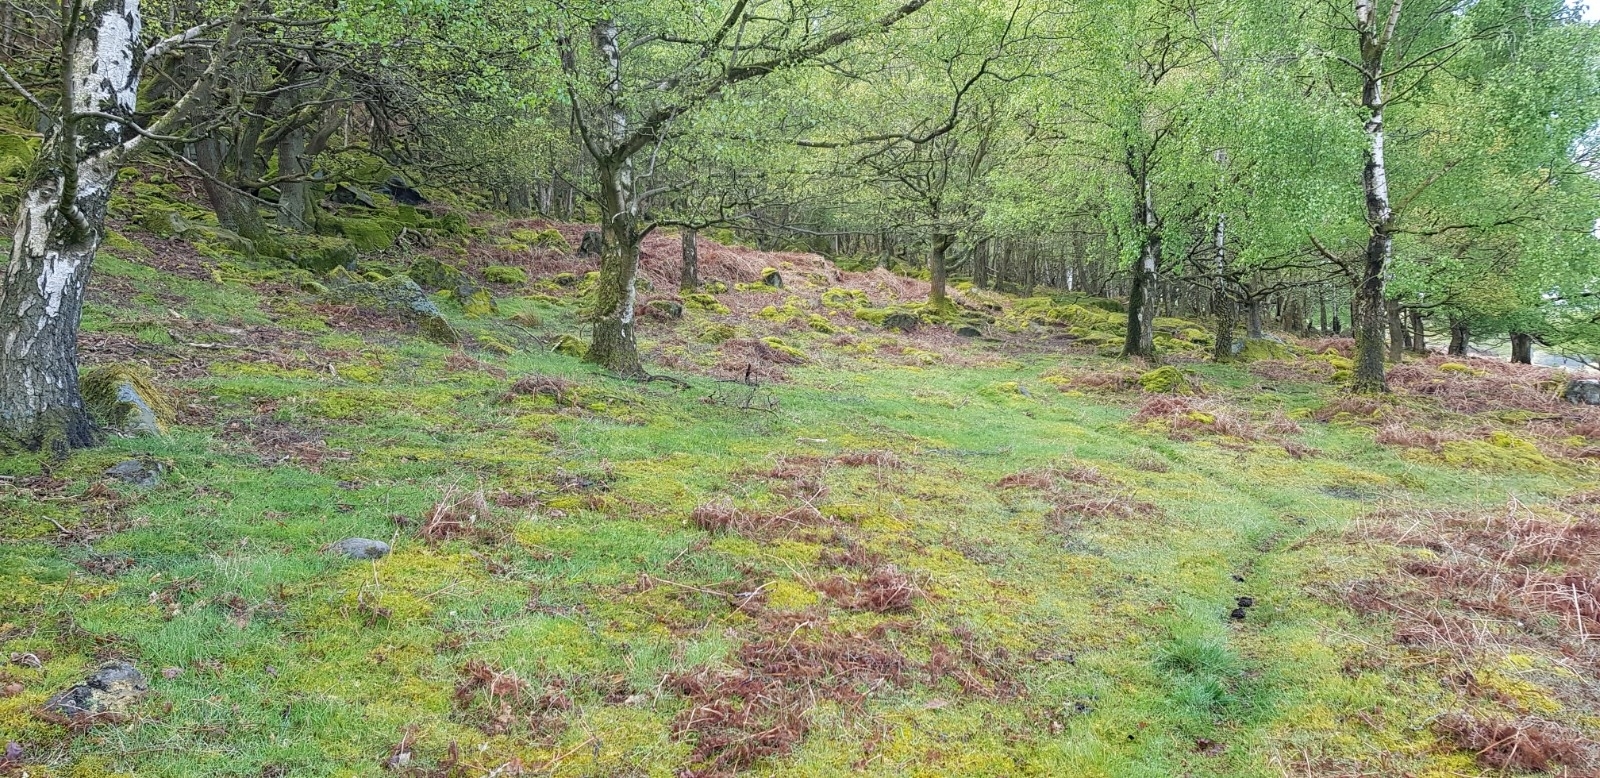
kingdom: Plantae
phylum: Bryophyta
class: Bryopsida
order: Hypnales
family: Hylocomiaceae
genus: Rhytidiadelphus
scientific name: Rhytidiadelphus squarrosus
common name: Springy turf-moss
